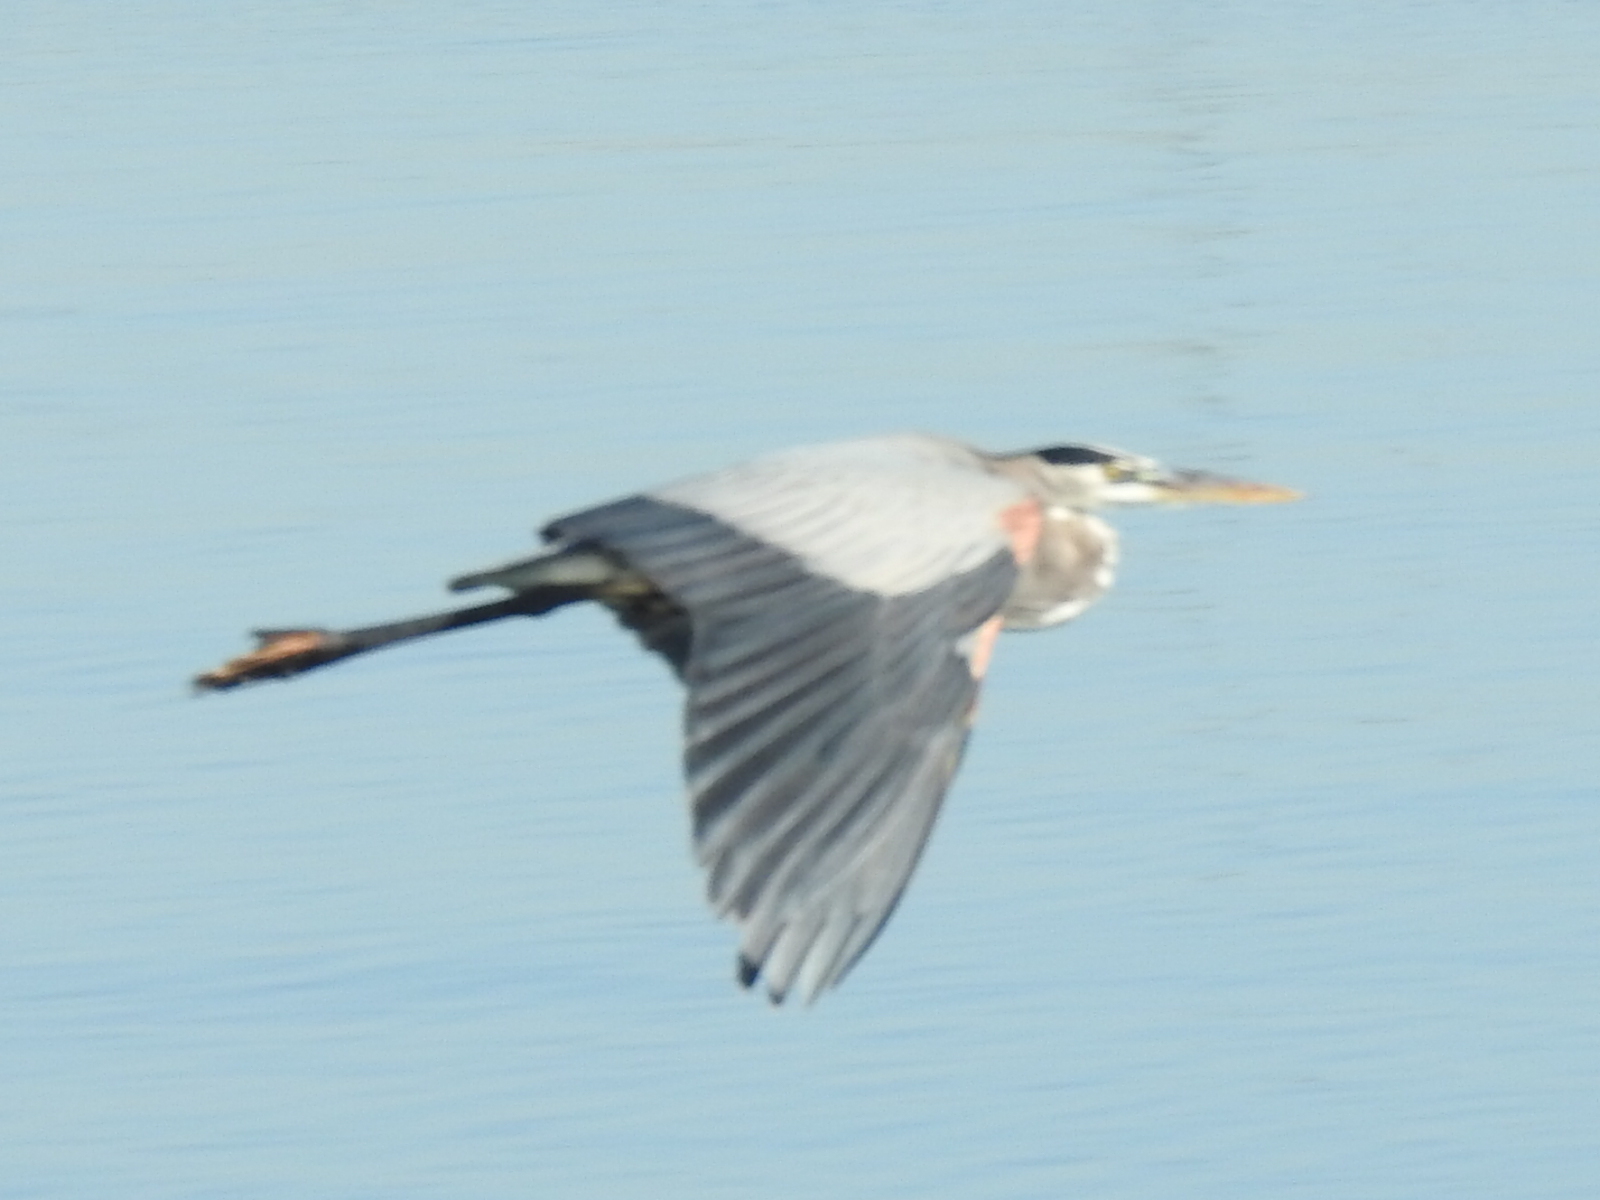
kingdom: Animalia
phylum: Chordata
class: Aves
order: Pelecaniformes
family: Ardeidae
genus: Ardea
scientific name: Ardea herodias
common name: Great blue heron
